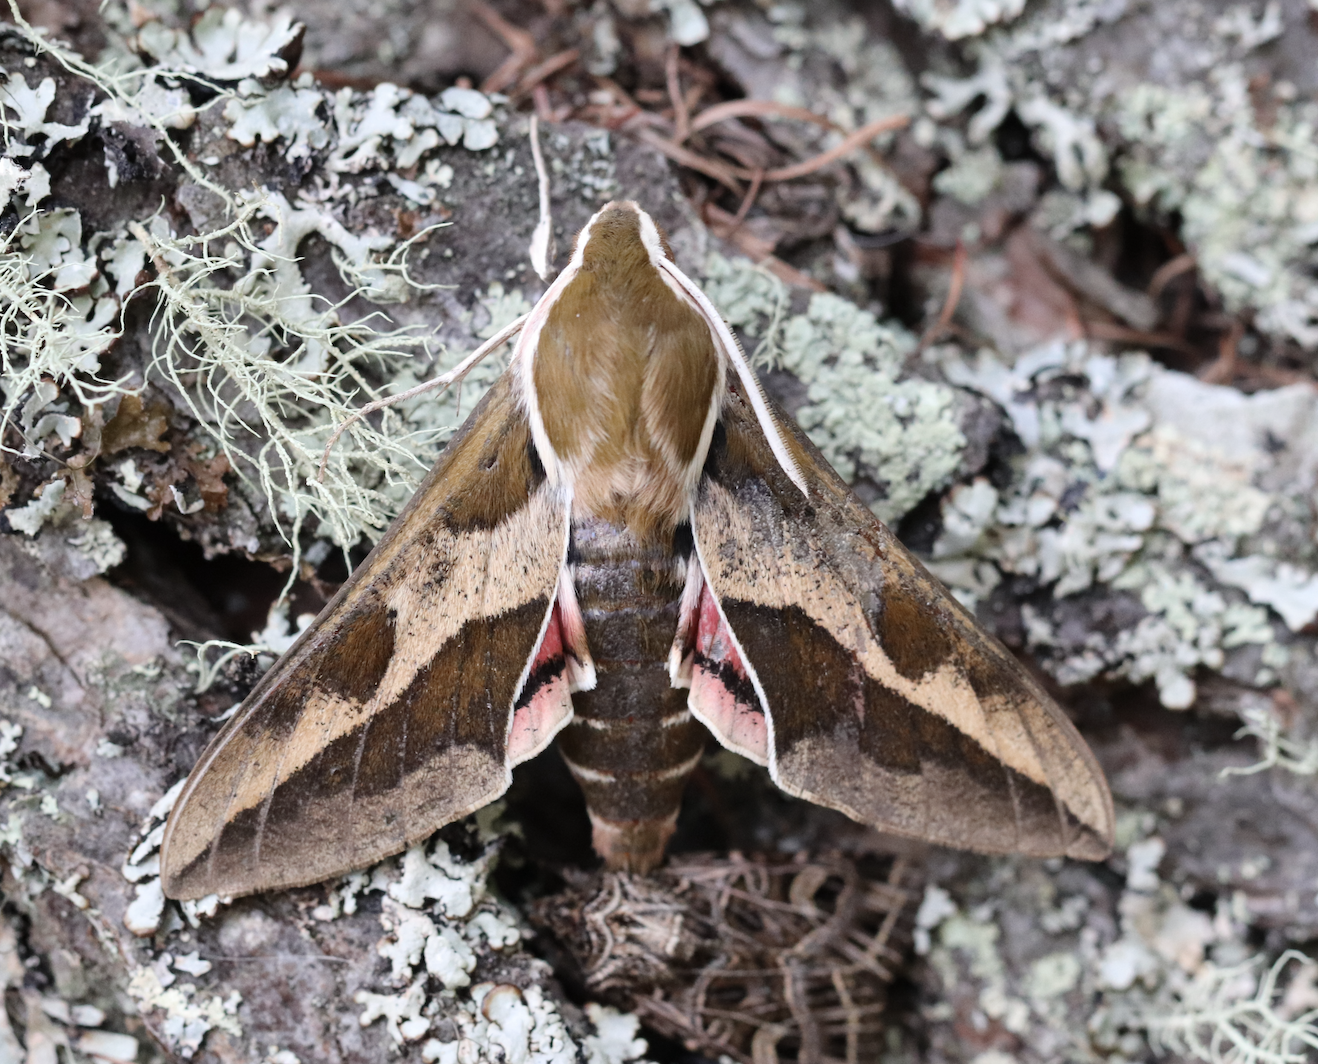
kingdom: Animalia
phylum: Arthropoda
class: Insecta
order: Lepidoptera
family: Sphingidae
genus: Hyles
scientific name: Hyles euphorbiae
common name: Spurge hawk-moth
